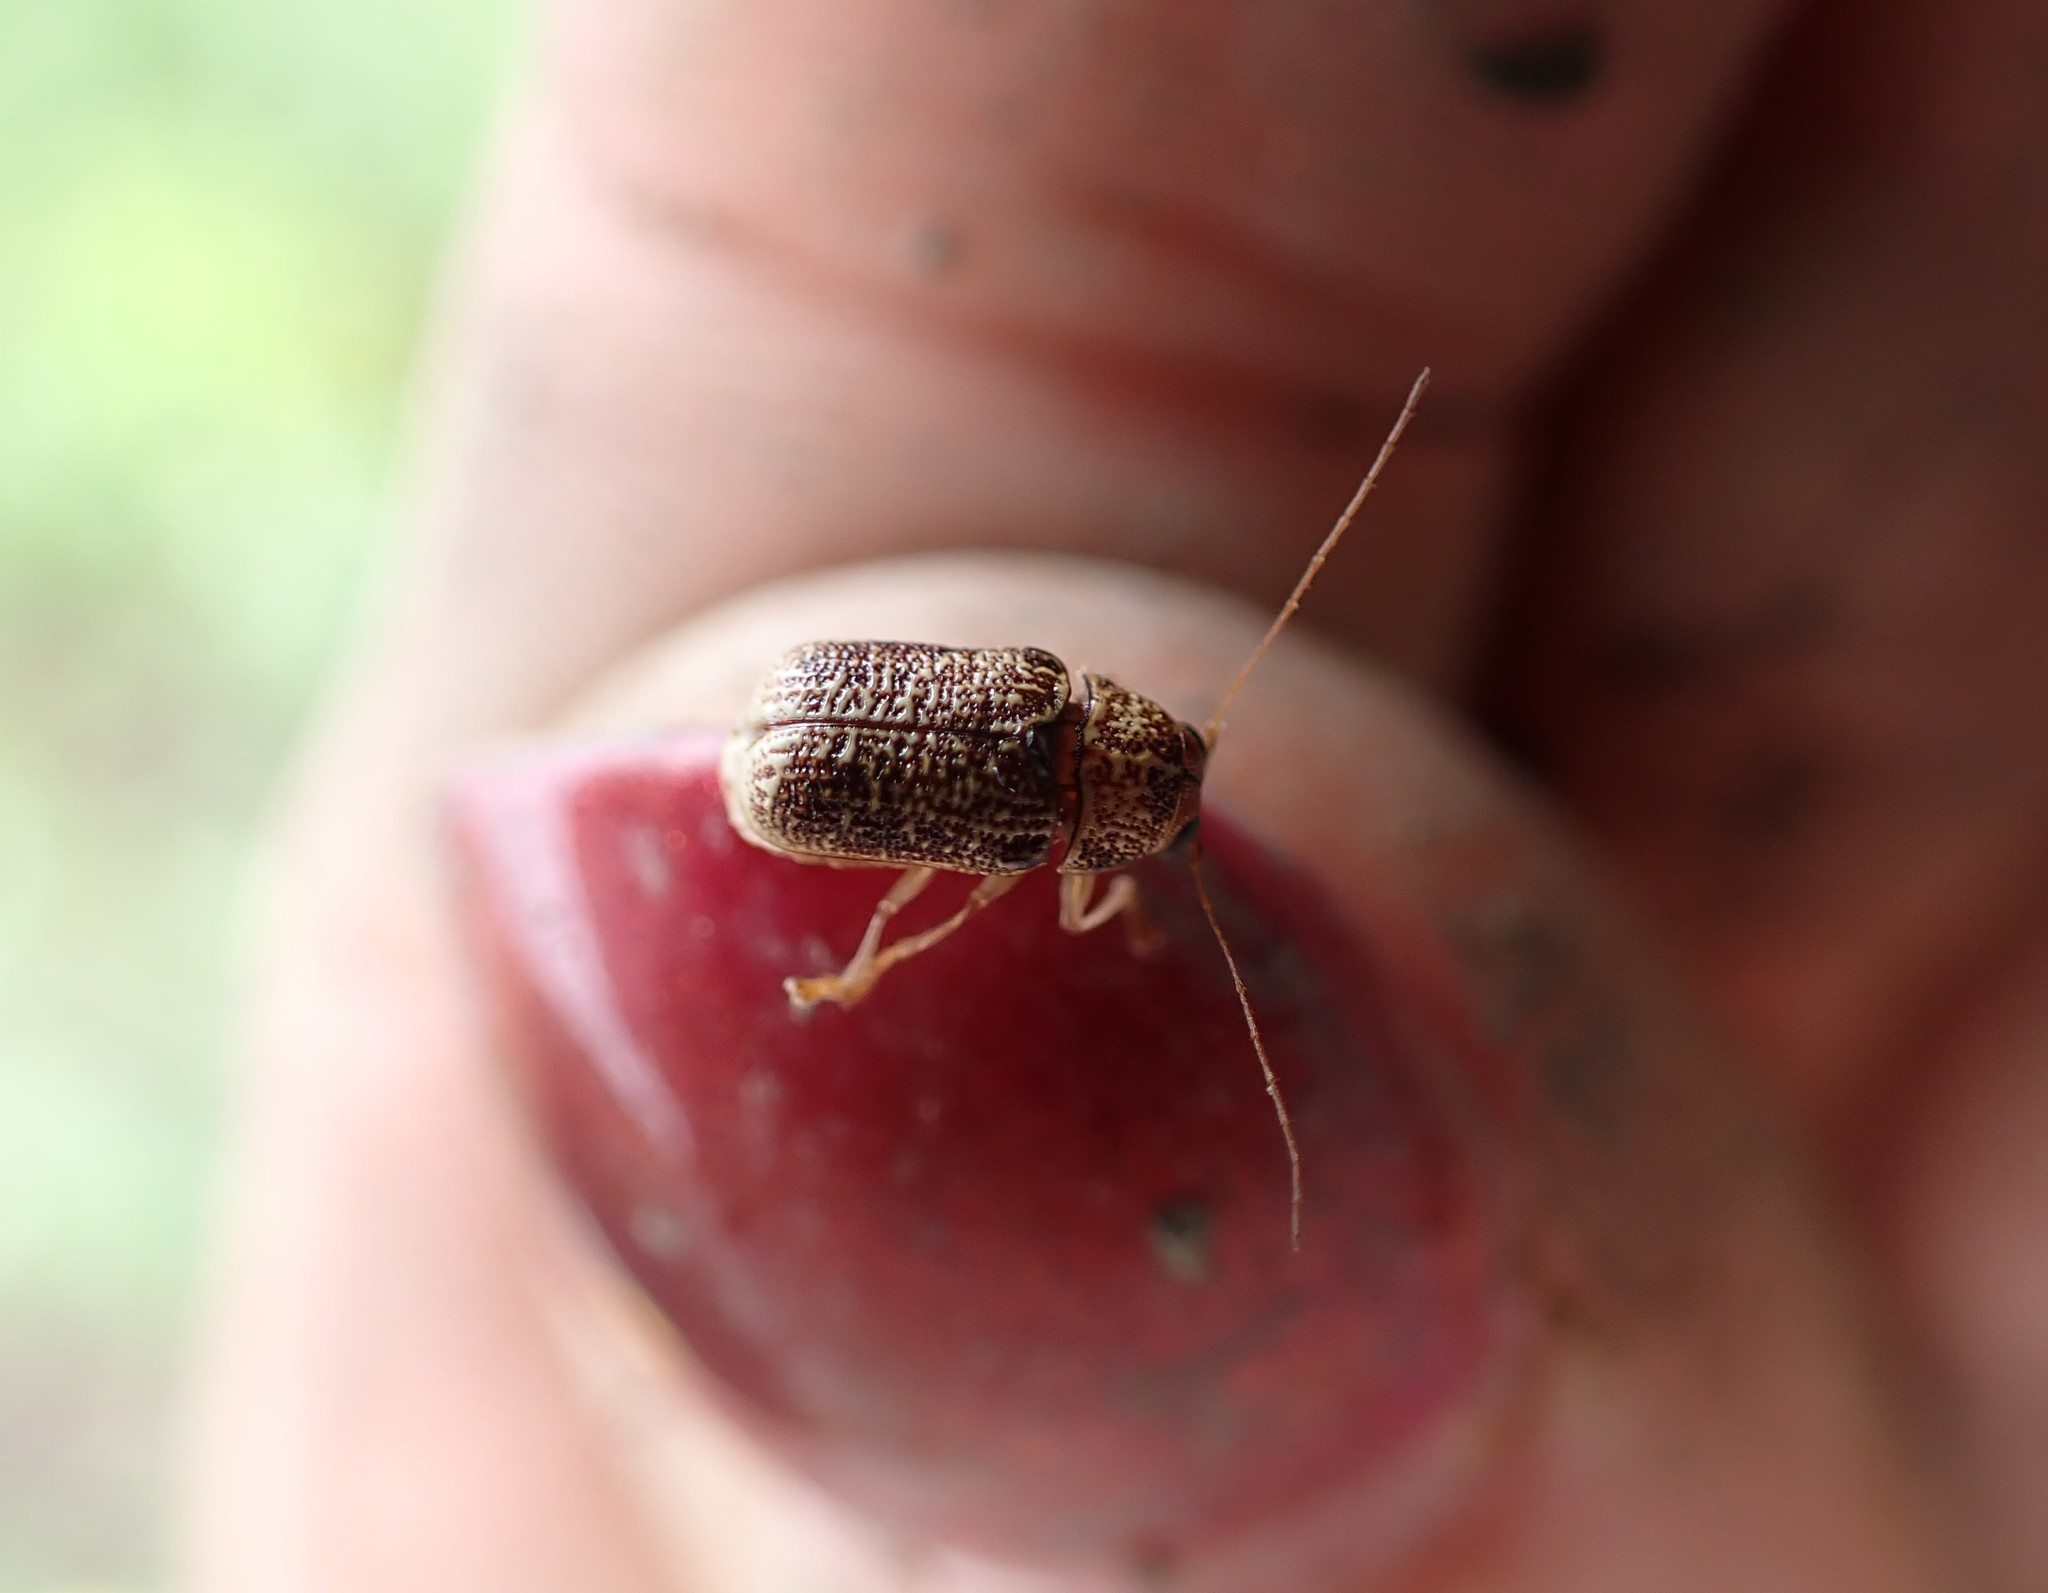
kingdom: Animalia
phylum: Arthropoda
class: Insecta
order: Coleoptera
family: Chrysomelidae
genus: Aporocera
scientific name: Aporocera
